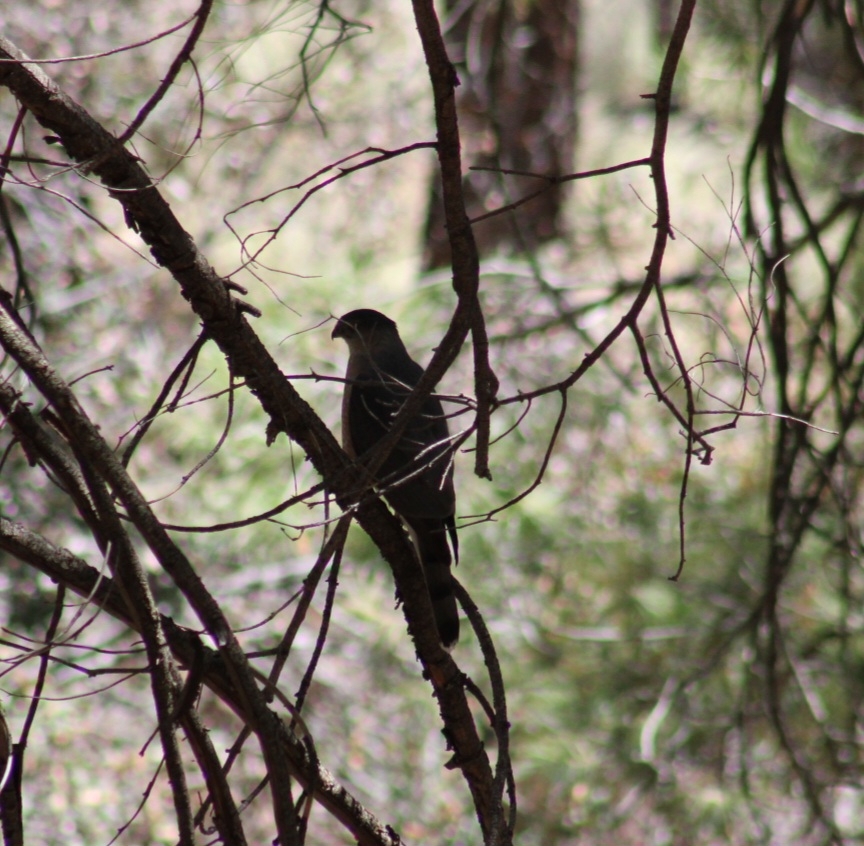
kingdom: Animalia
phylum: Chordata
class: Aves
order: Accipitriformes
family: Accipitridae
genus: Accipiter
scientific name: Accipiter cooperii
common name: Cooper's hawk
